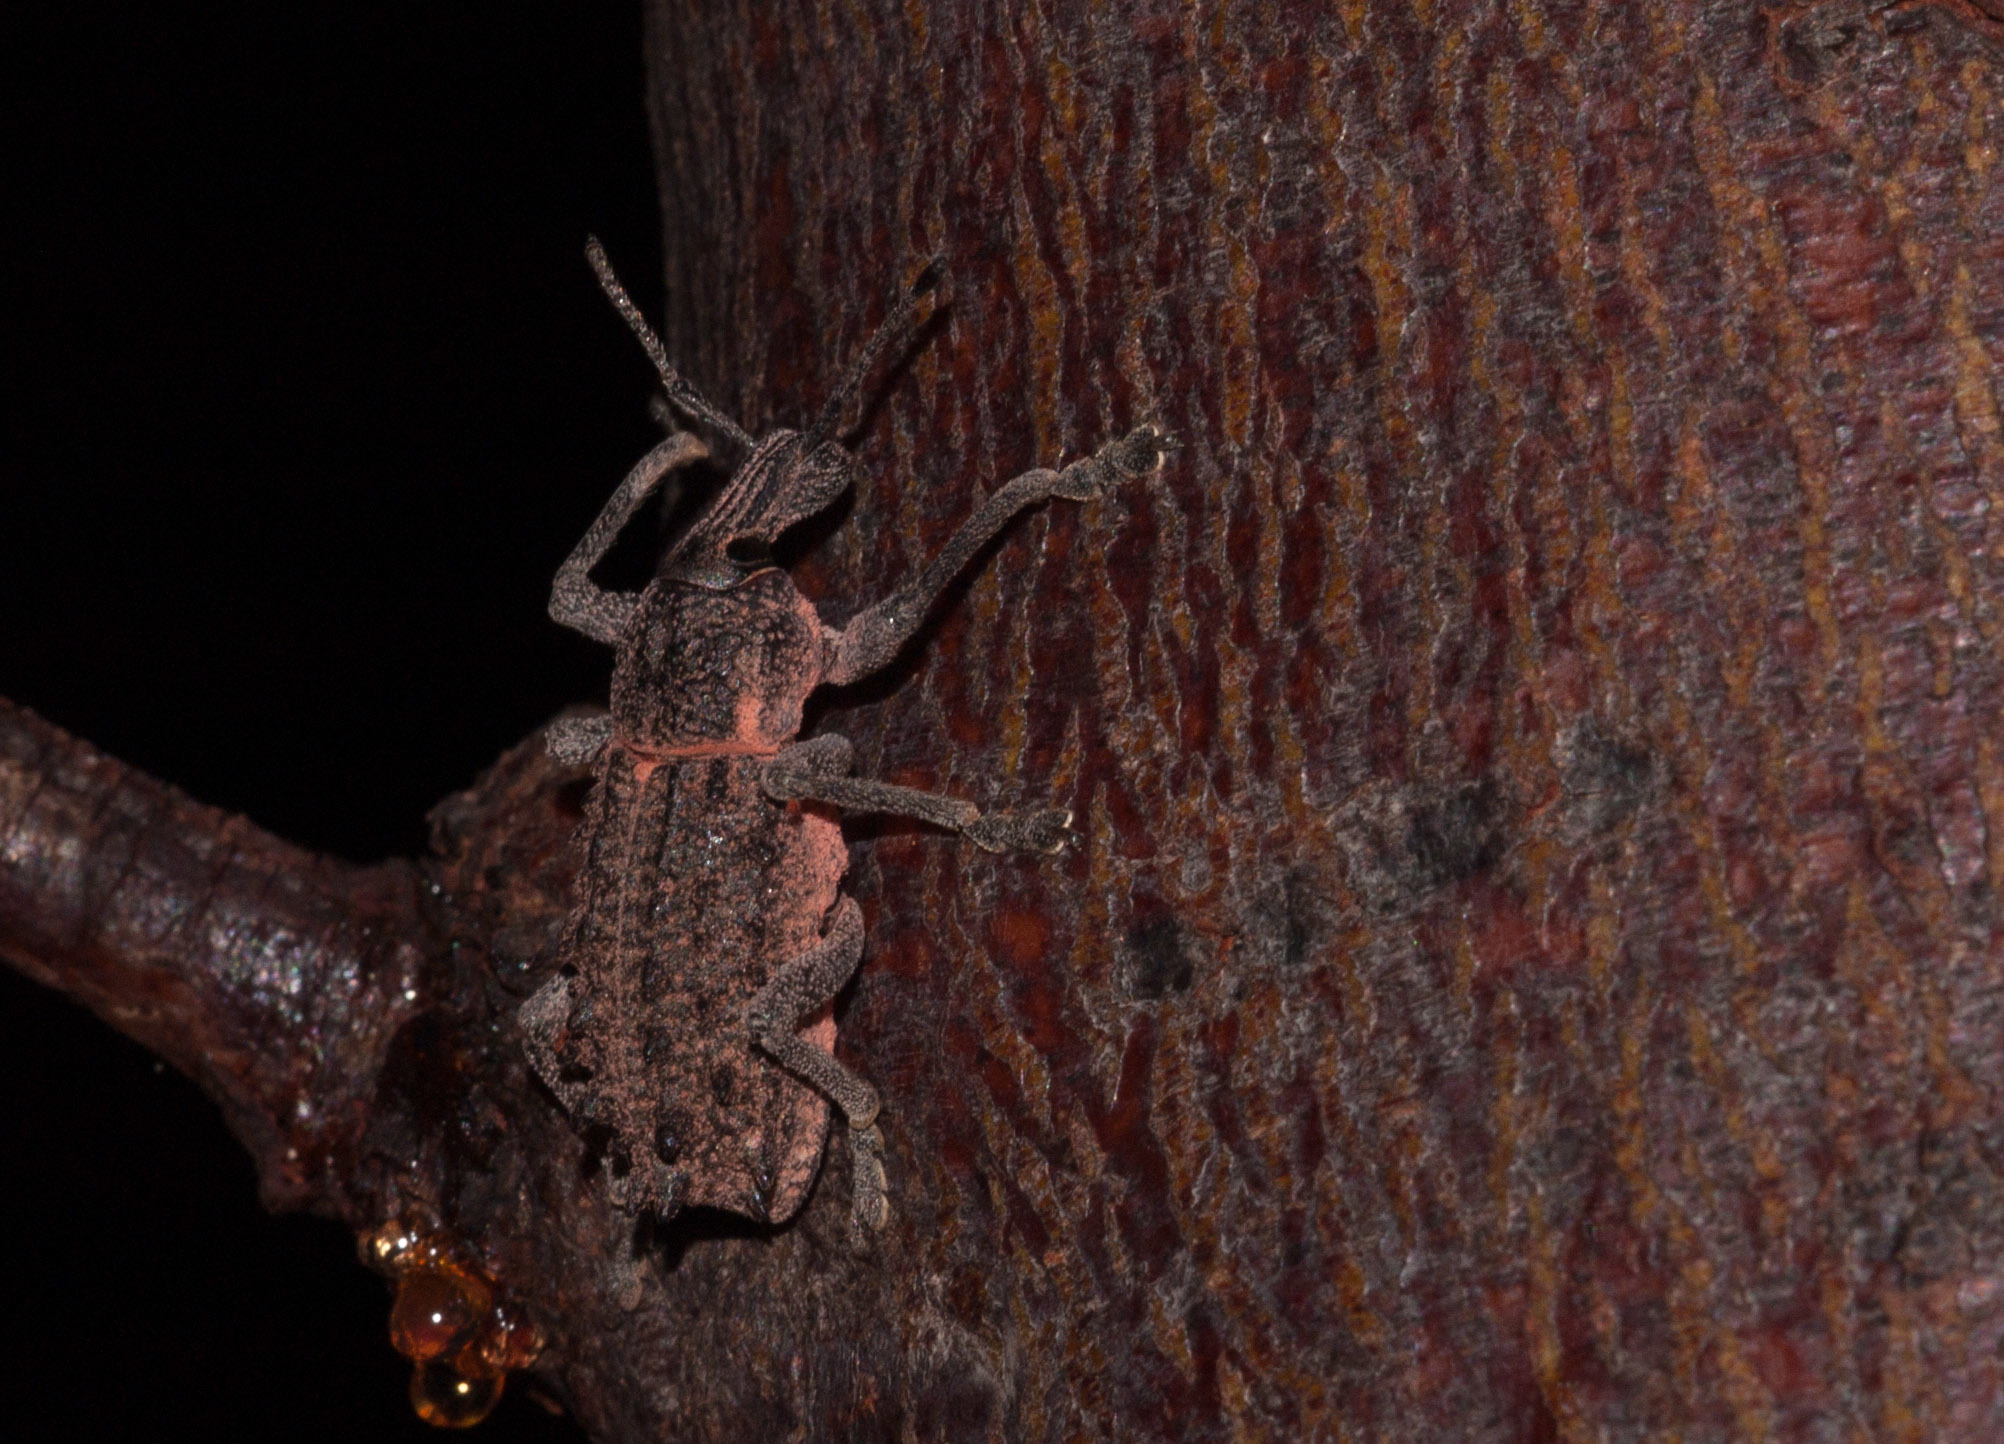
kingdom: Animalia
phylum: Arthropoda
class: Insecta
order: Coleoptera
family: Curculionidae
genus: Leptopius
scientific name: Leptopius
